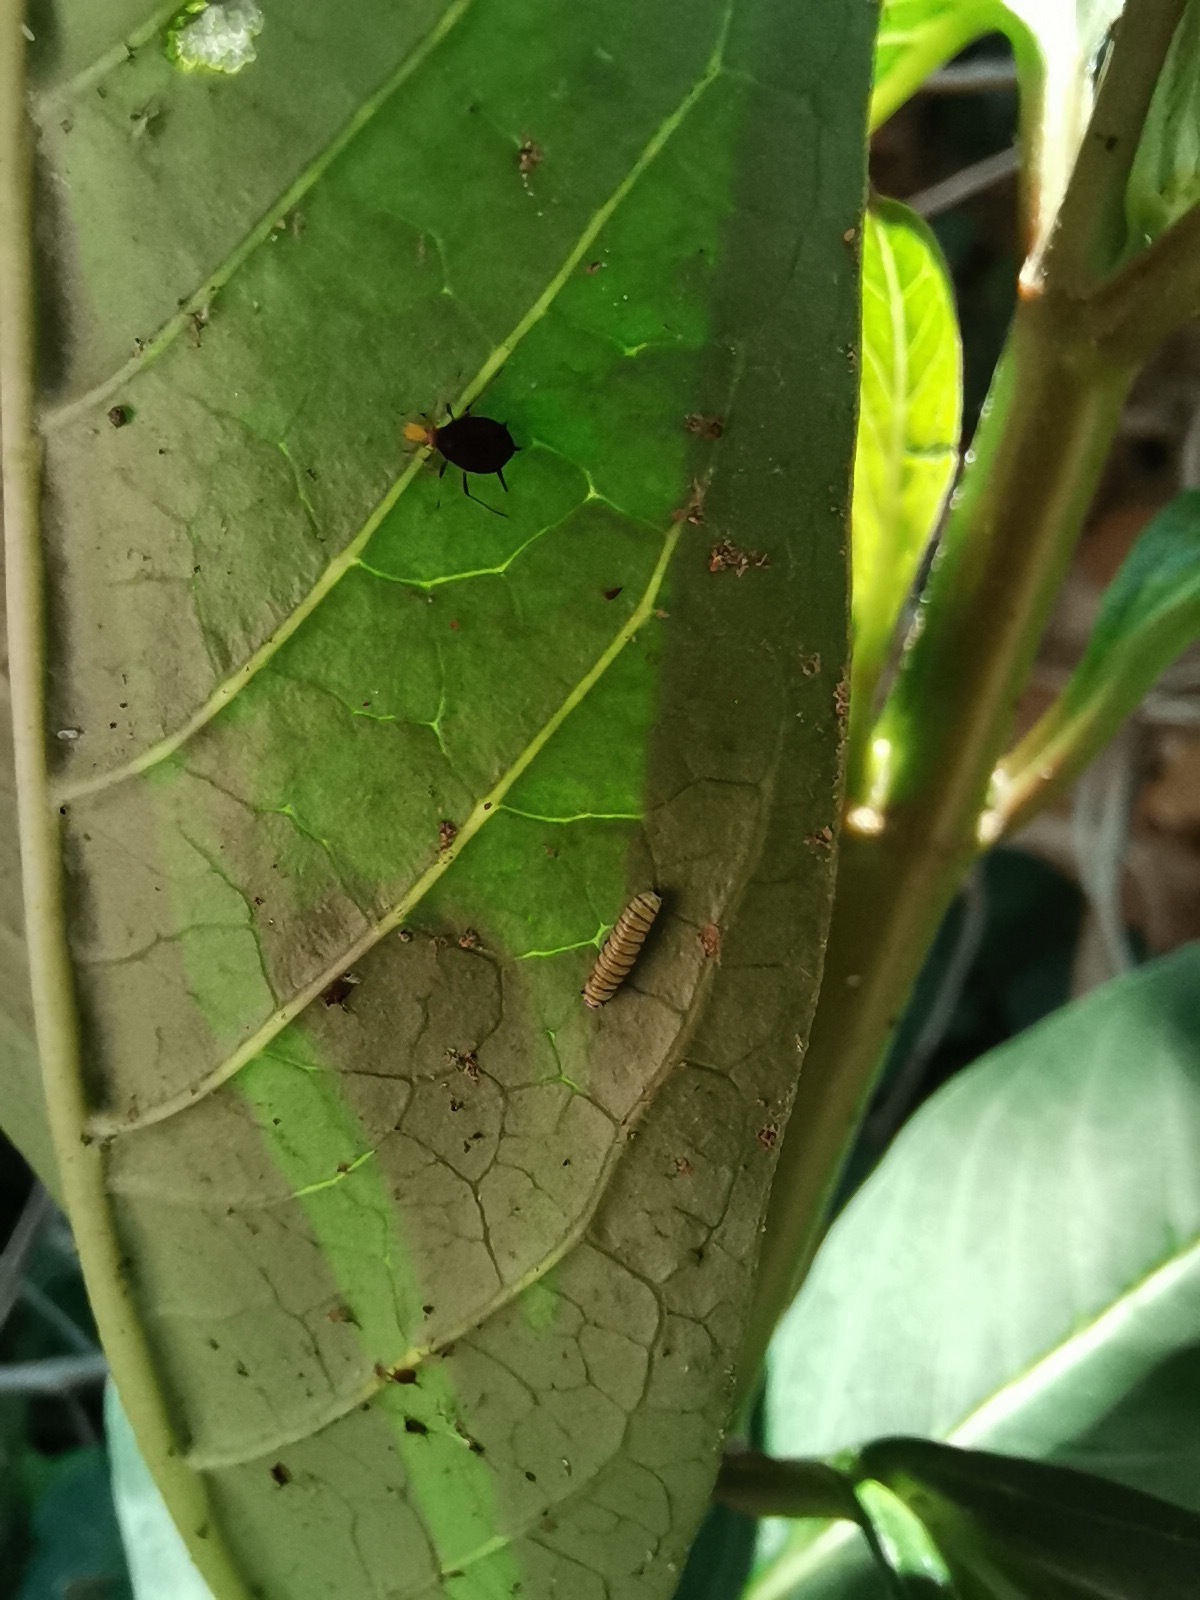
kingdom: Animalia
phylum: Arthropoda
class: Insecta
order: Lepidoptera
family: Nymphalidae
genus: Danaus
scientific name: Danaus plexippus
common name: Monarch
